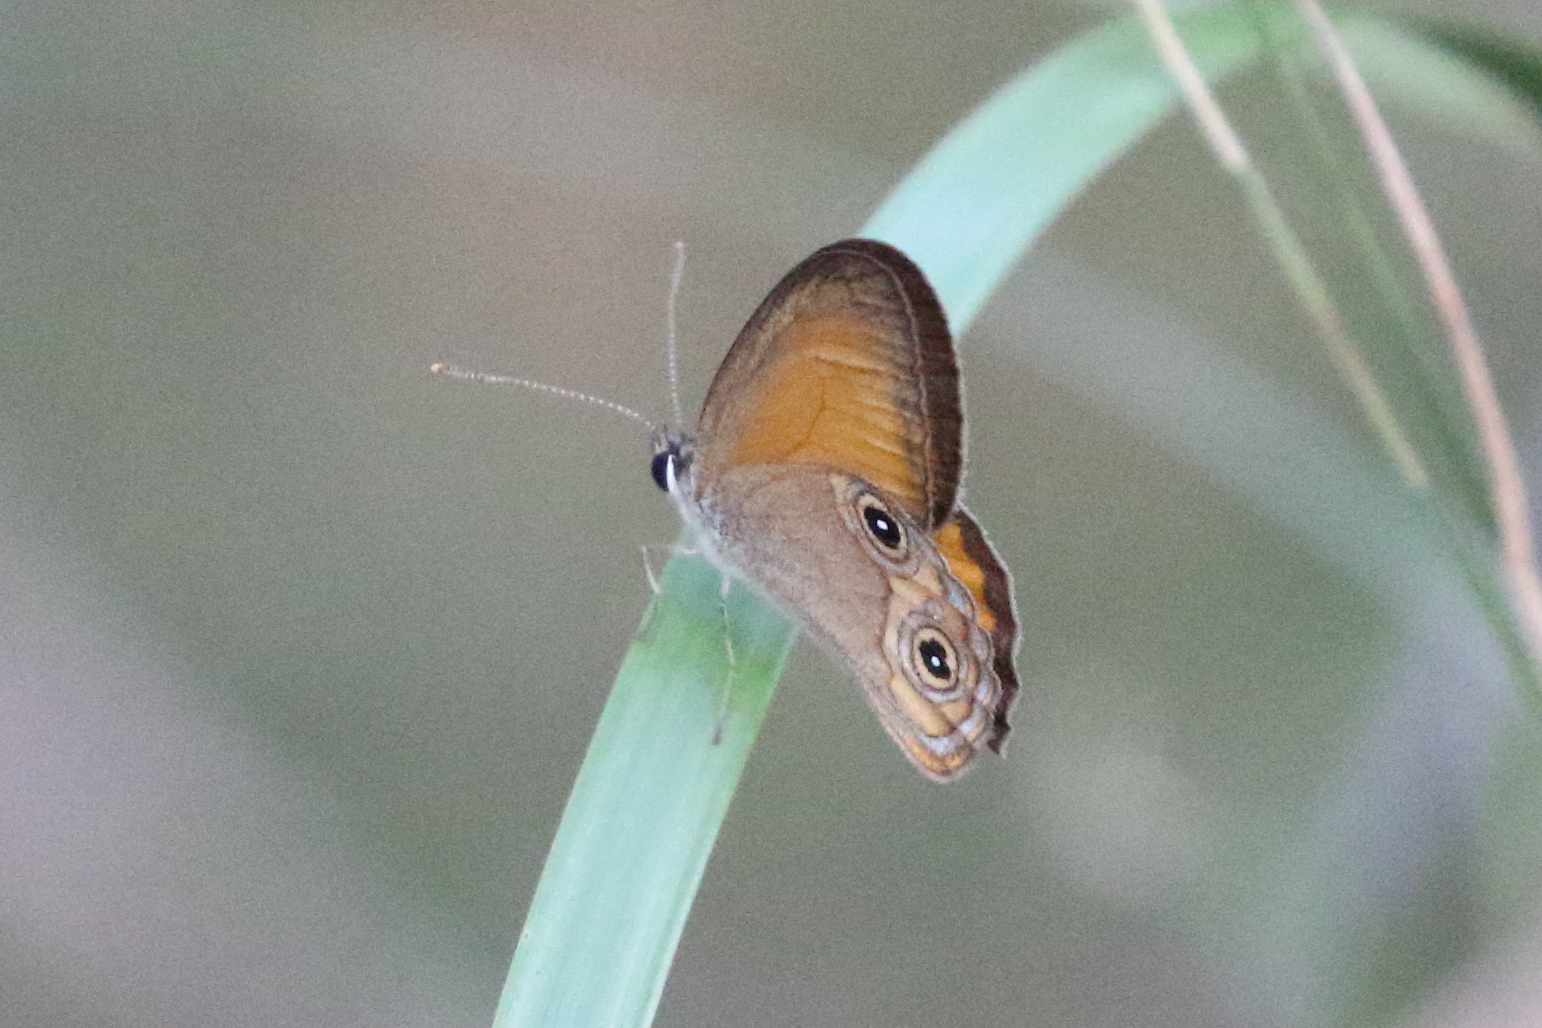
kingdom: Animalia
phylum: Arthropoda
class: Insecta
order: Lepidoptera
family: Nymphalidae
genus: Hypocysta
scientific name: Hypocysta adiante
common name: Orange ringlet
